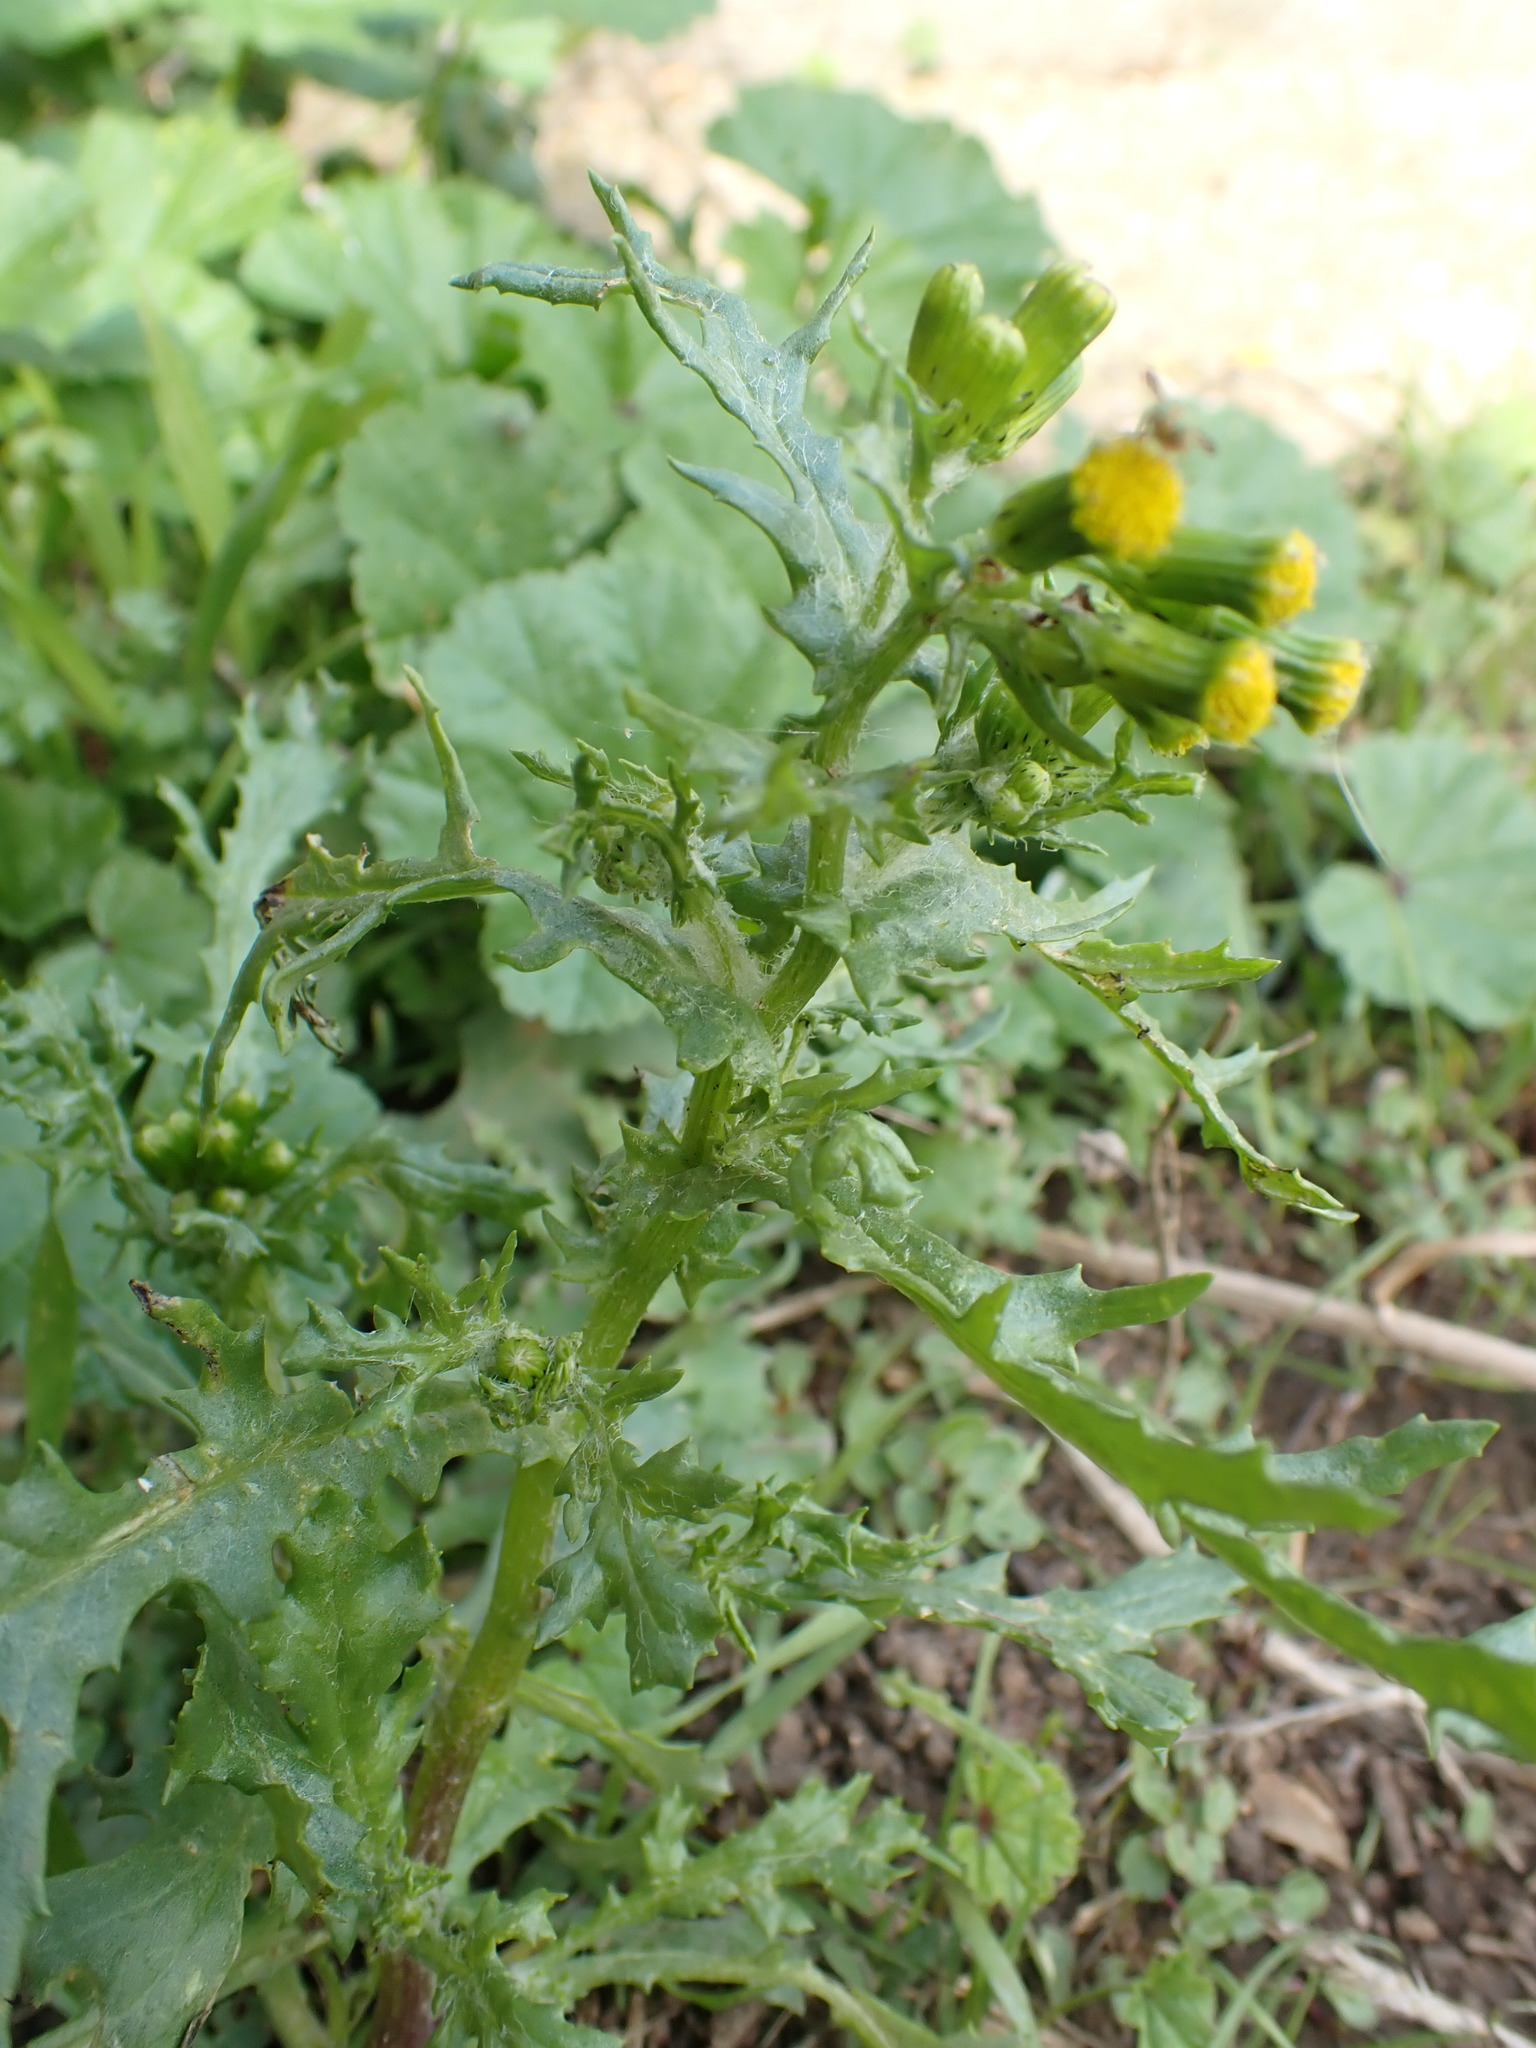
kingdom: Plantae
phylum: Tracheophyta
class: Magnoliopsida
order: Asterales
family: Asteraceae
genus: Senecio
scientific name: Senecio vulgaris
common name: Old-man-in-the-spring
